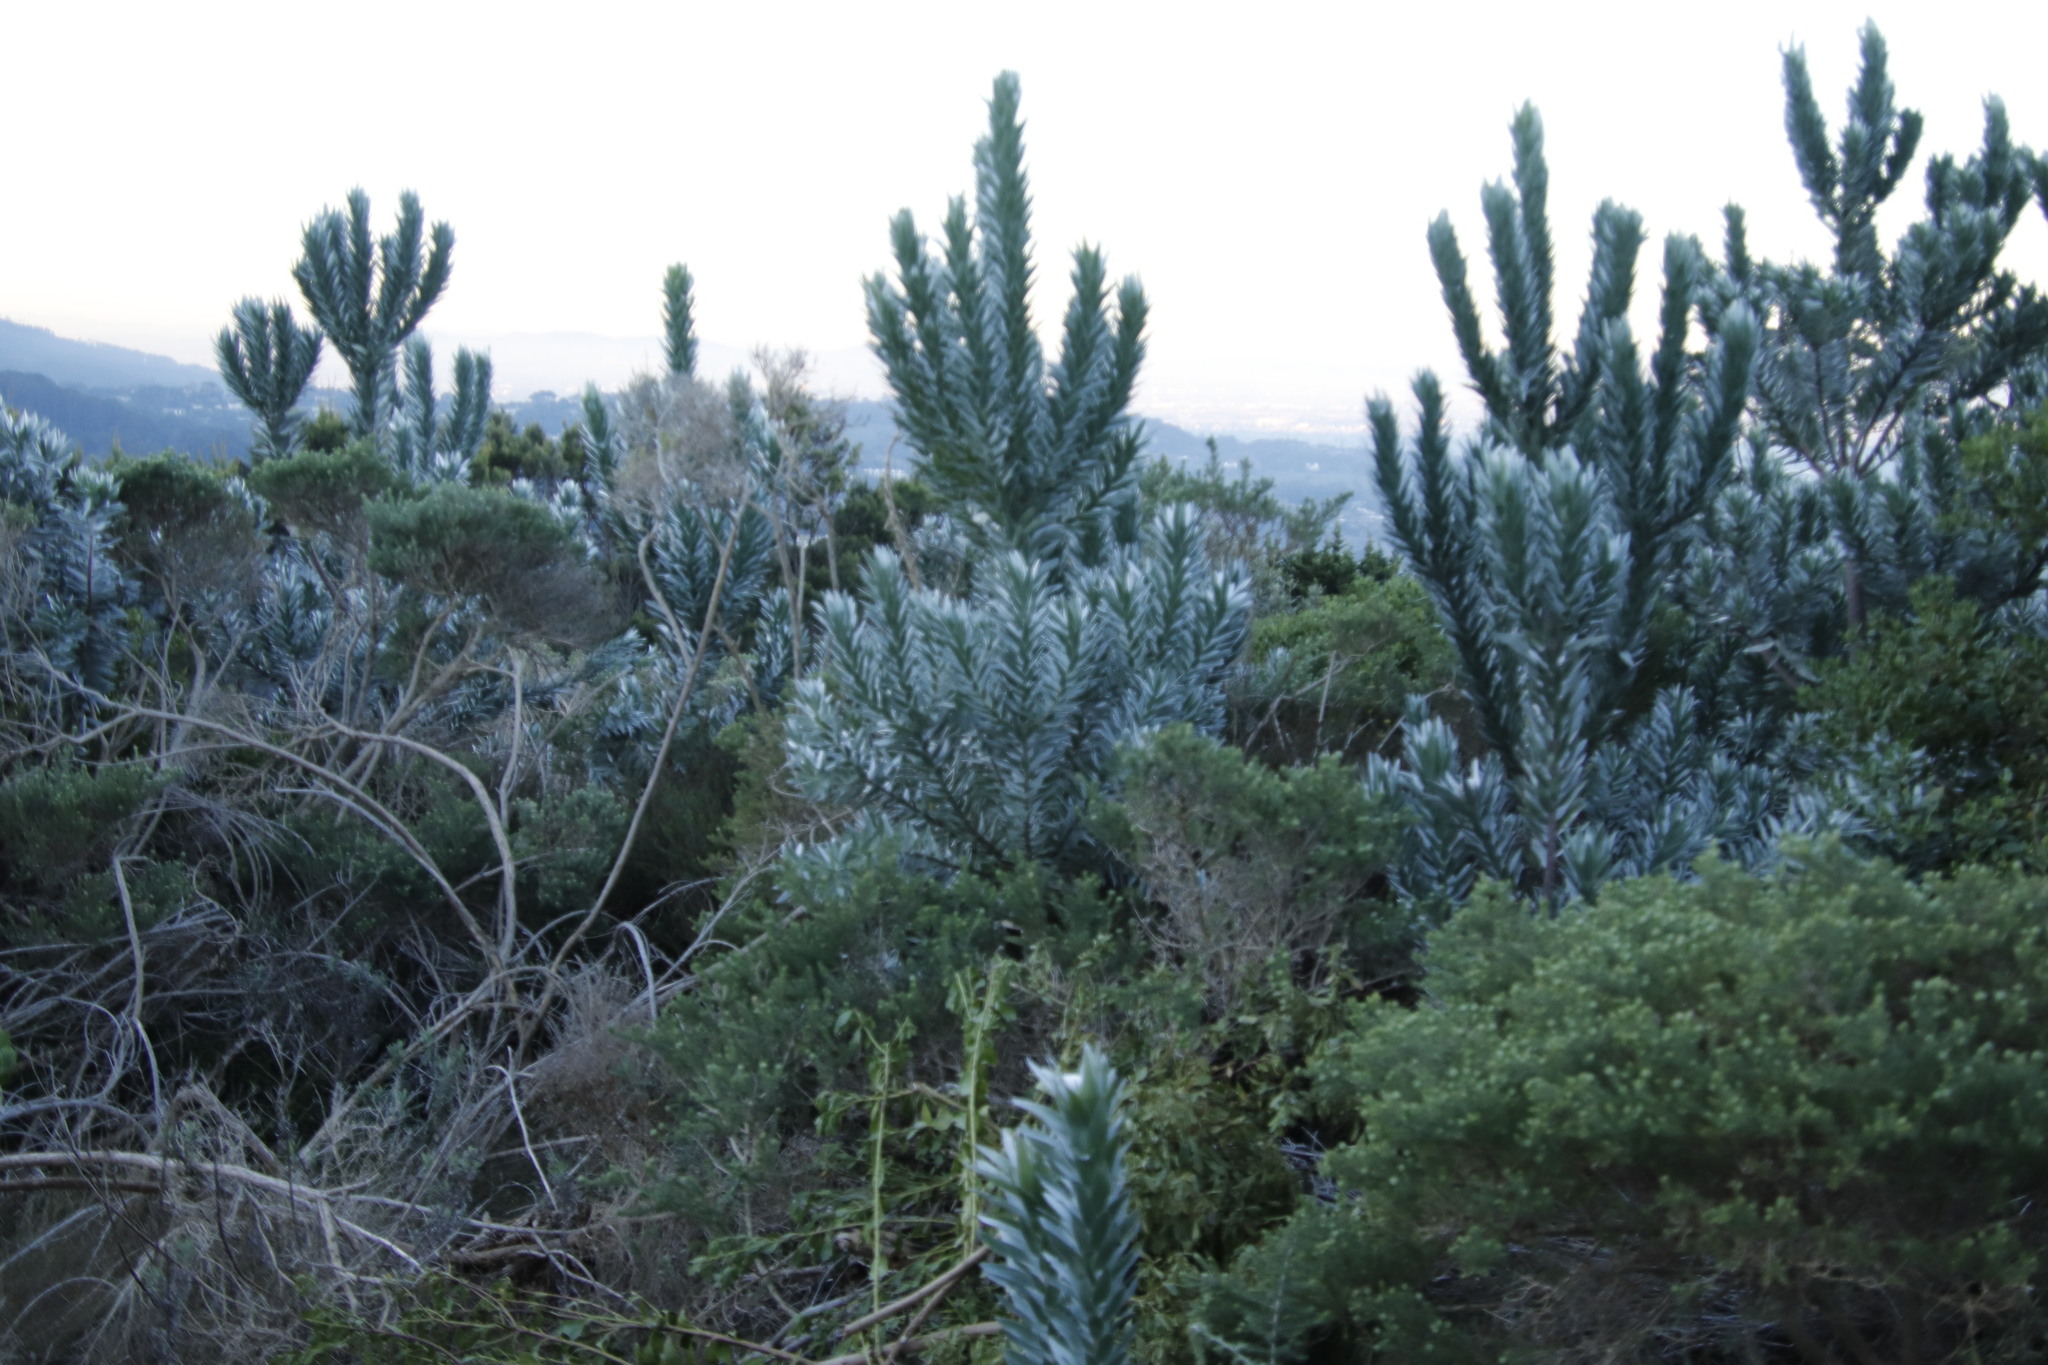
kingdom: Plantae
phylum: Tracheophyta
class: Magnoliopsida
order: Proteales
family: Proteaceae
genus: Leucadendron
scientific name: Leucadendron argenteum
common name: Cape silver tree
